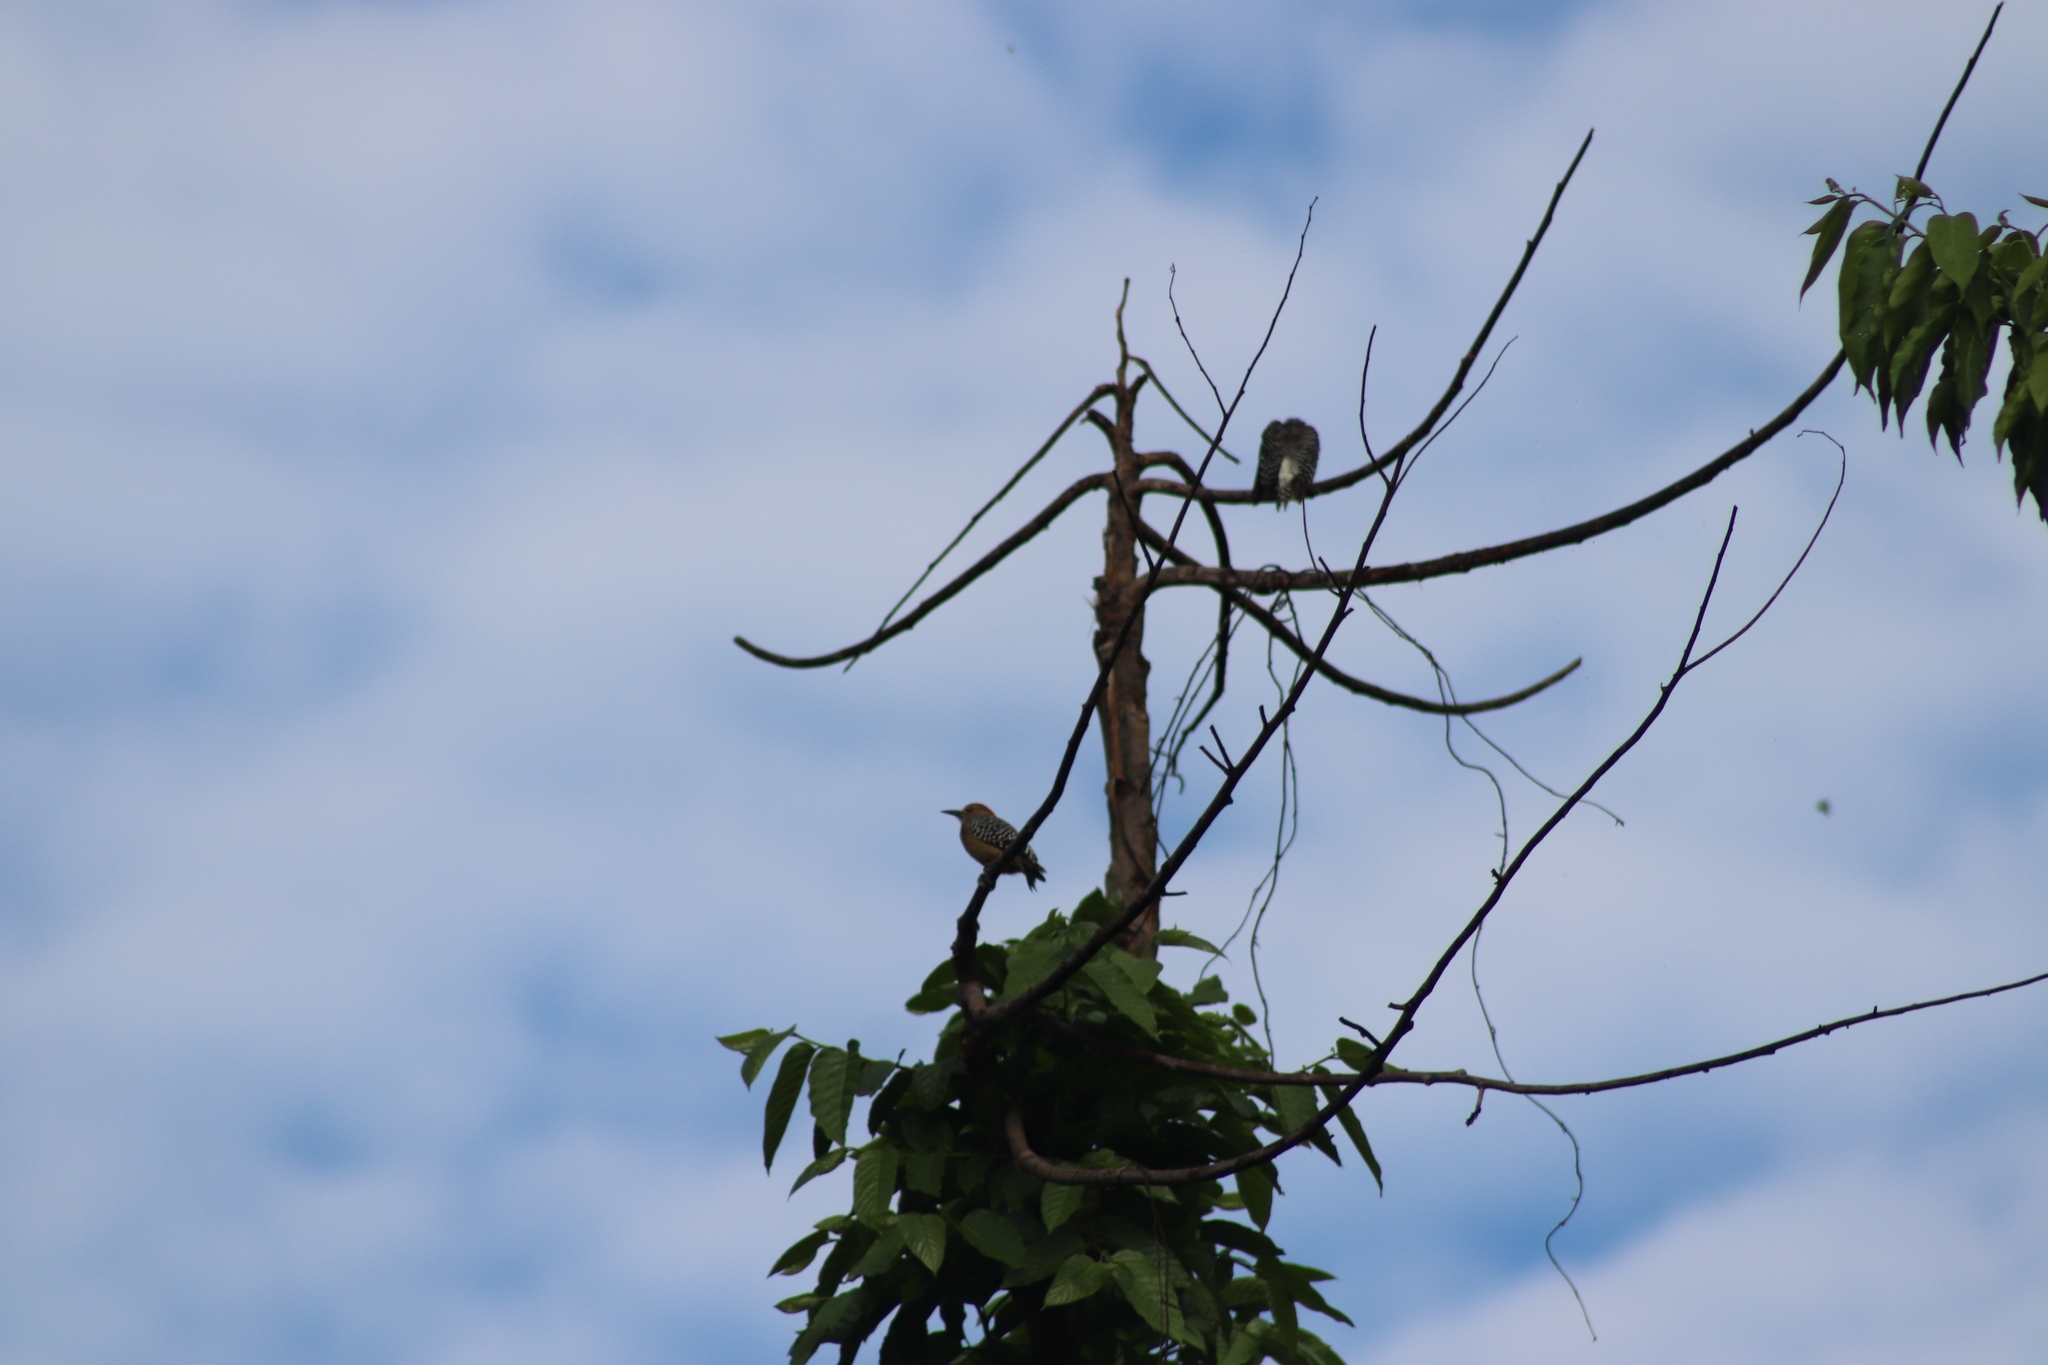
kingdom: Animalia
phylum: Chordata
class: Aves
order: Piciformes
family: Picidae
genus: Melanerpes
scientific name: Melanerpes rubricapillus
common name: Red-crowned woodpecker
